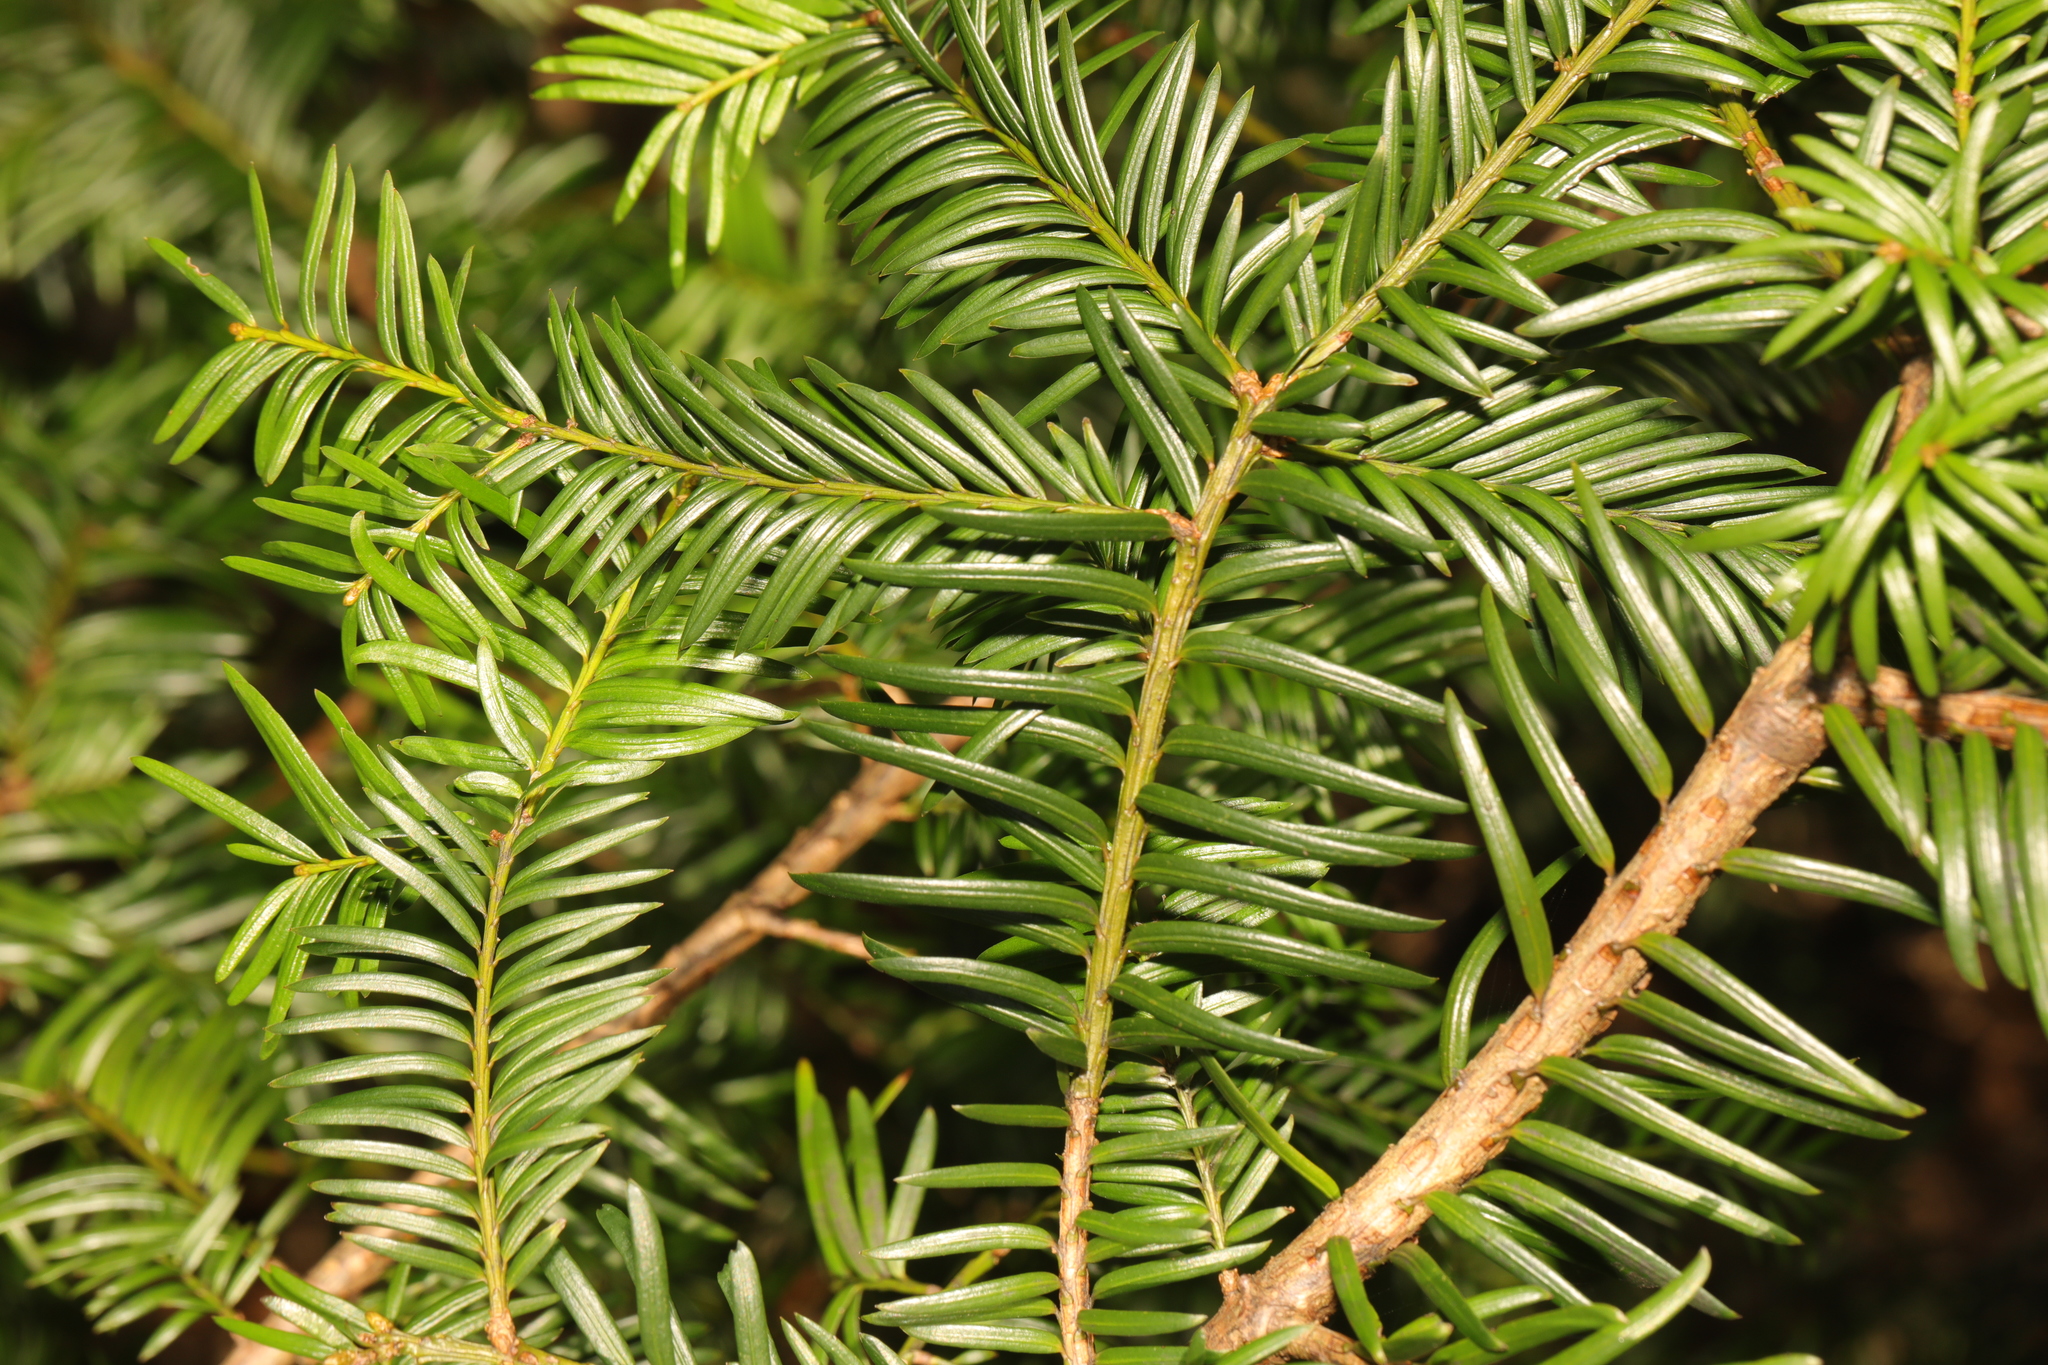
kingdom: Plantae
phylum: Tracheophyta
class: Pinopsida
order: Pinales
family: Taxaceae
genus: Taxus
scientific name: Taxus baccata
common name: Yew
